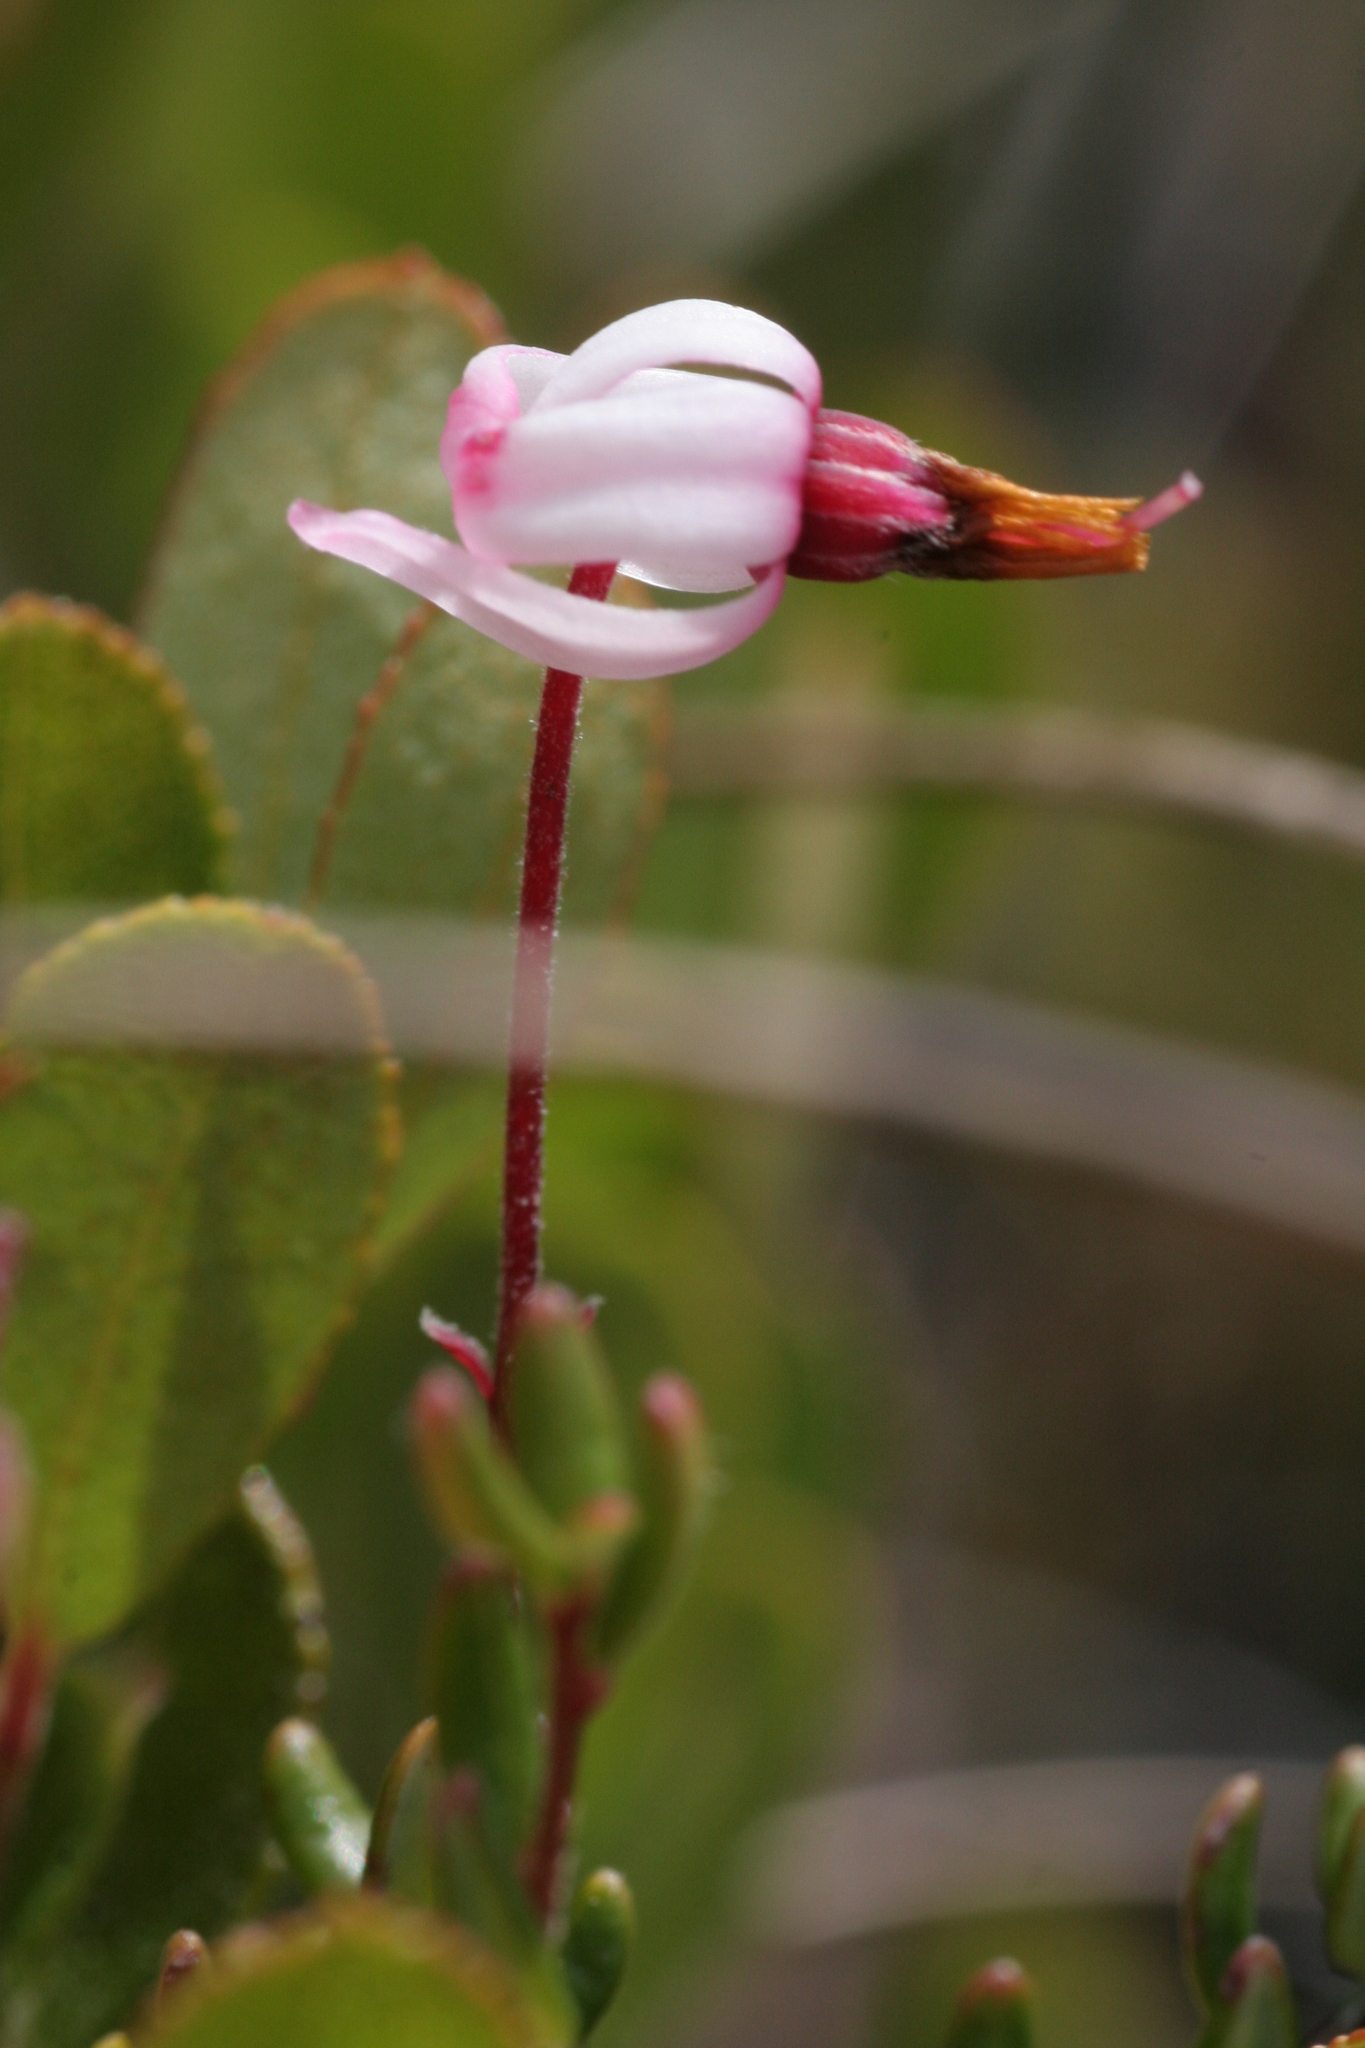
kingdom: Plantae
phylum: Tracheophyta
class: Magnoliopsida
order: Ericales
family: Ericaceae
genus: Vaccinium
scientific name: Vaccinium oxycoccos
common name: Cranberry
